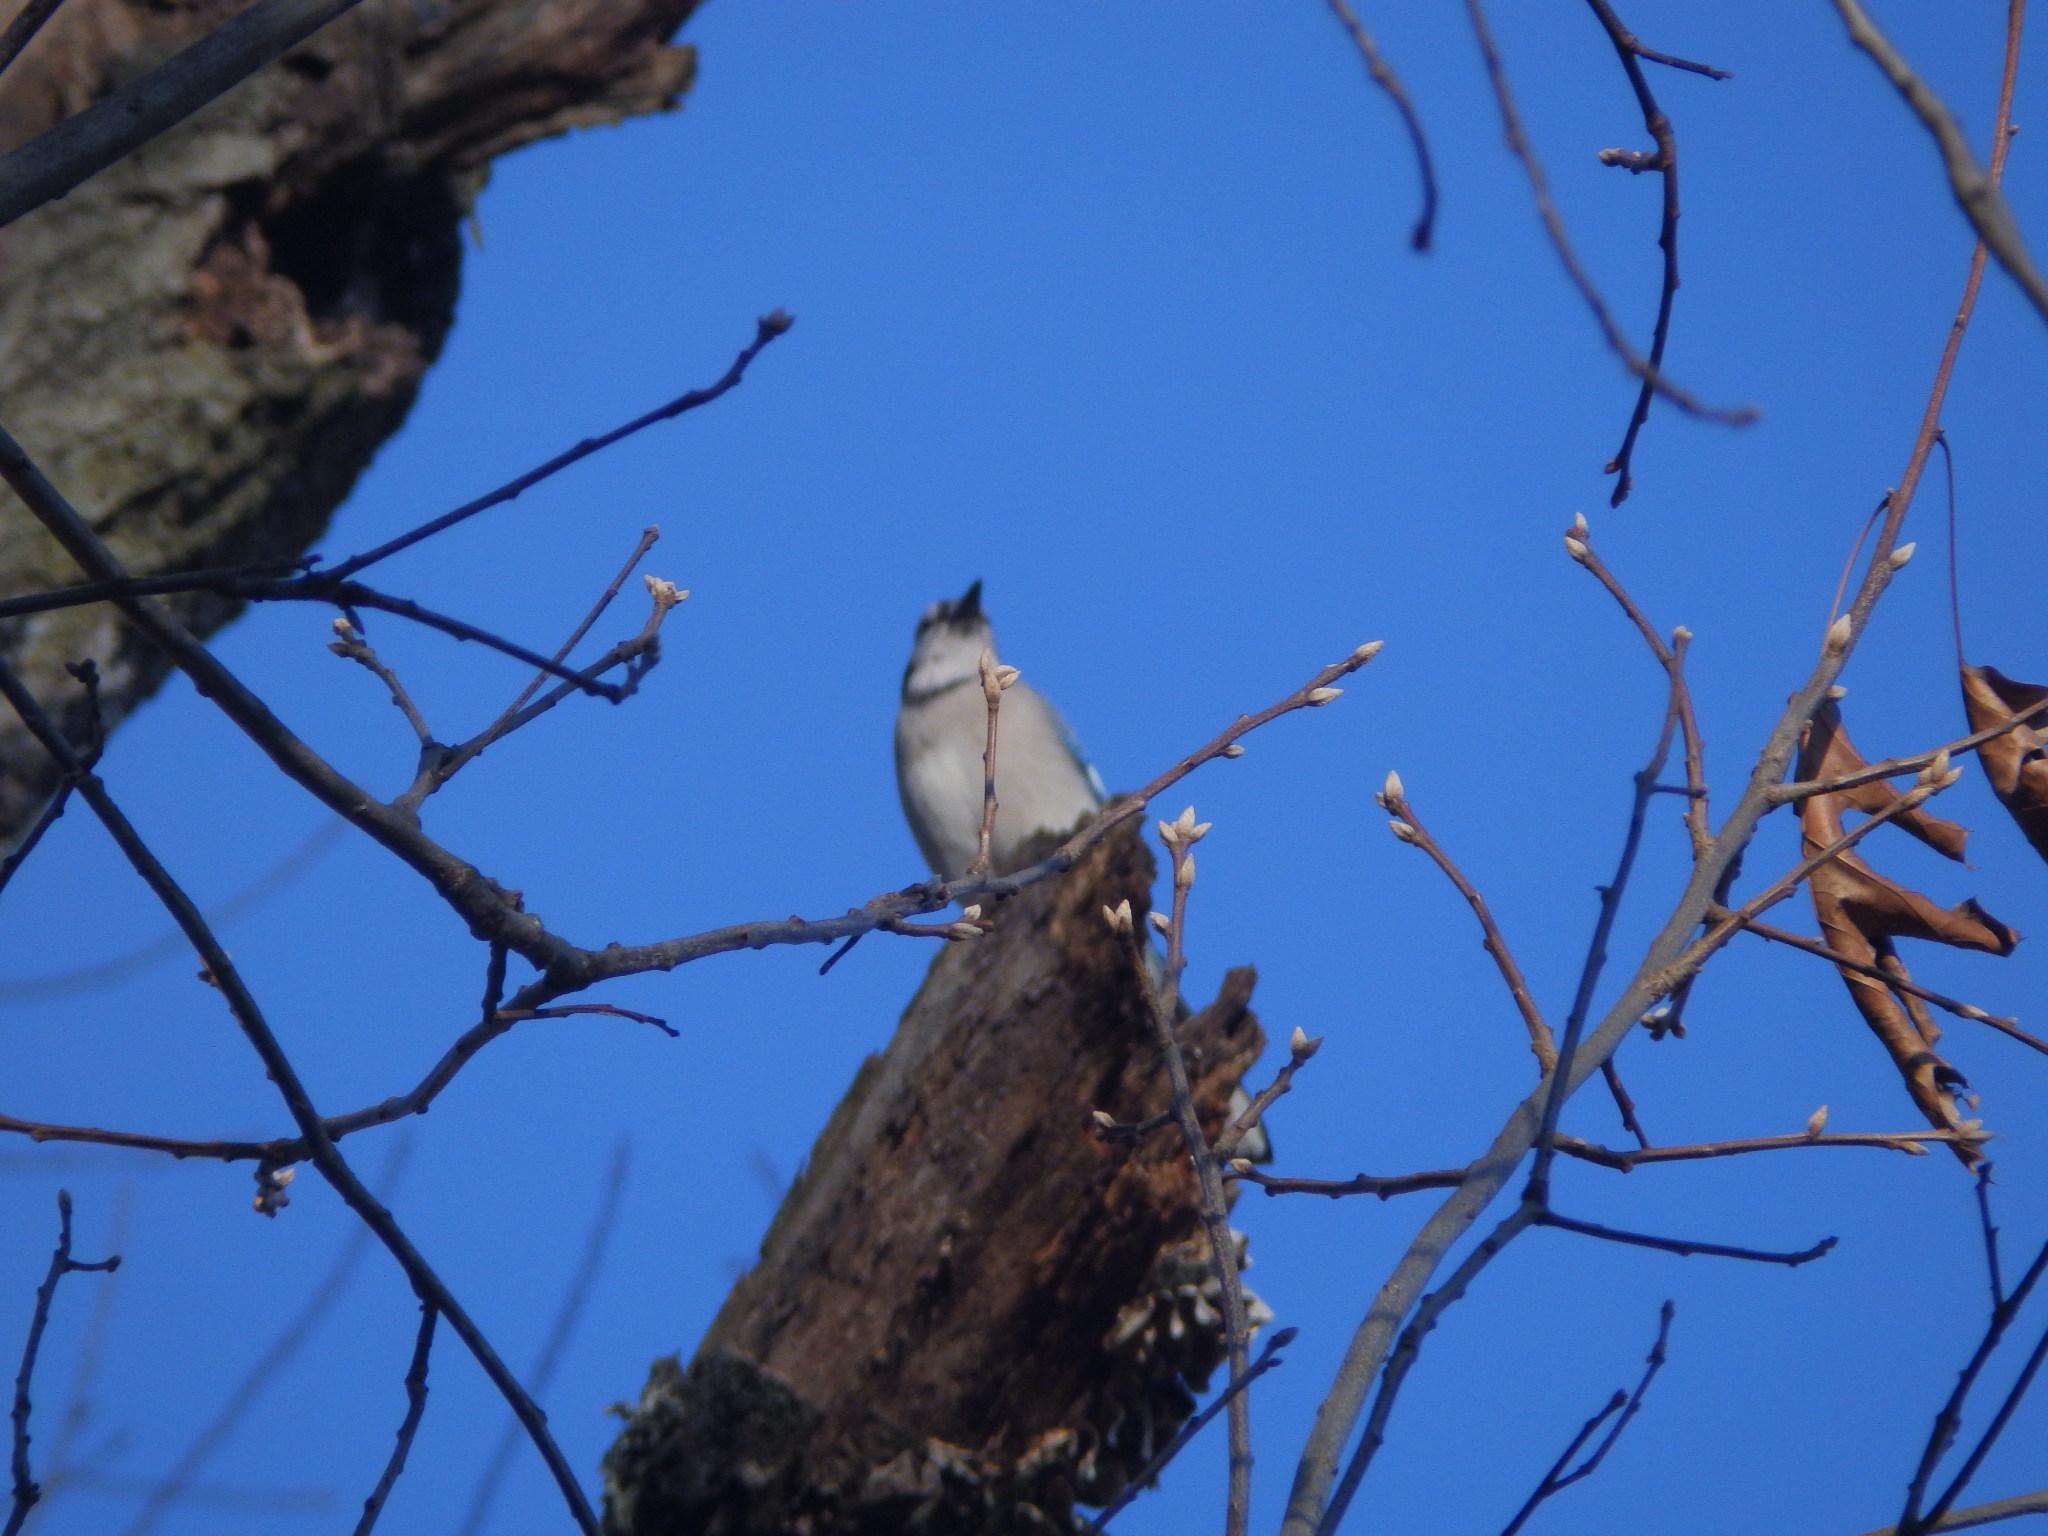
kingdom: Animalia
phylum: Chordata
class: Aves
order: Passeriformes
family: Corvidae
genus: Cyanocitta
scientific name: Cyanocitta cristata
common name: Blue jay
